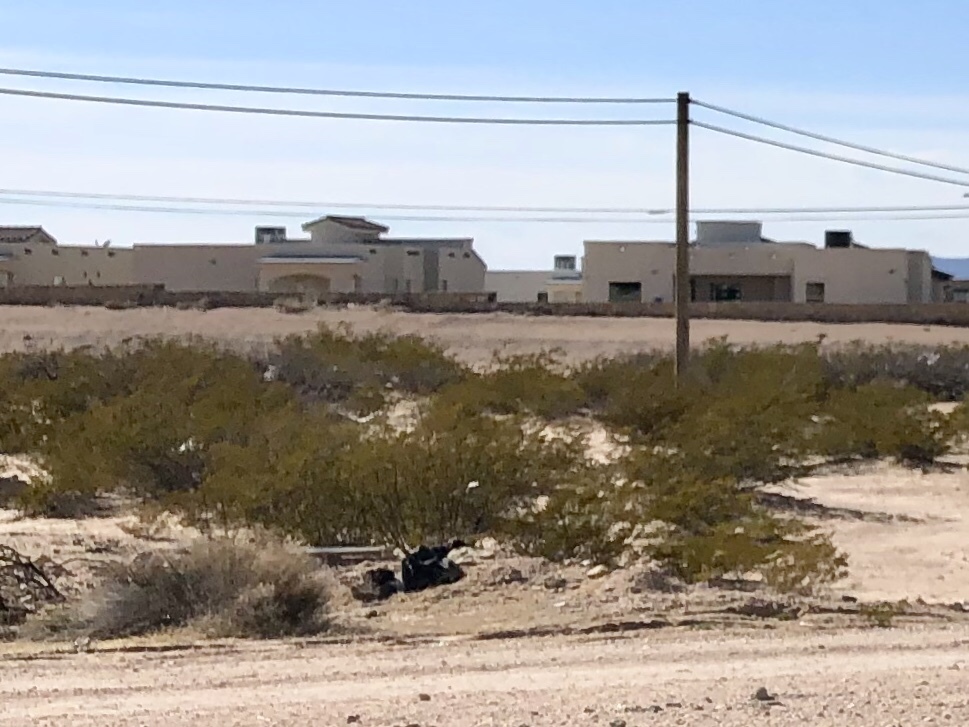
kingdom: Plantae
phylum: Tracheophyta
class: Magnoliopsida
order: Zygophyllales
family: Zygophyllaceae
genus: Larrea
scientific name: Larrea tridentata
